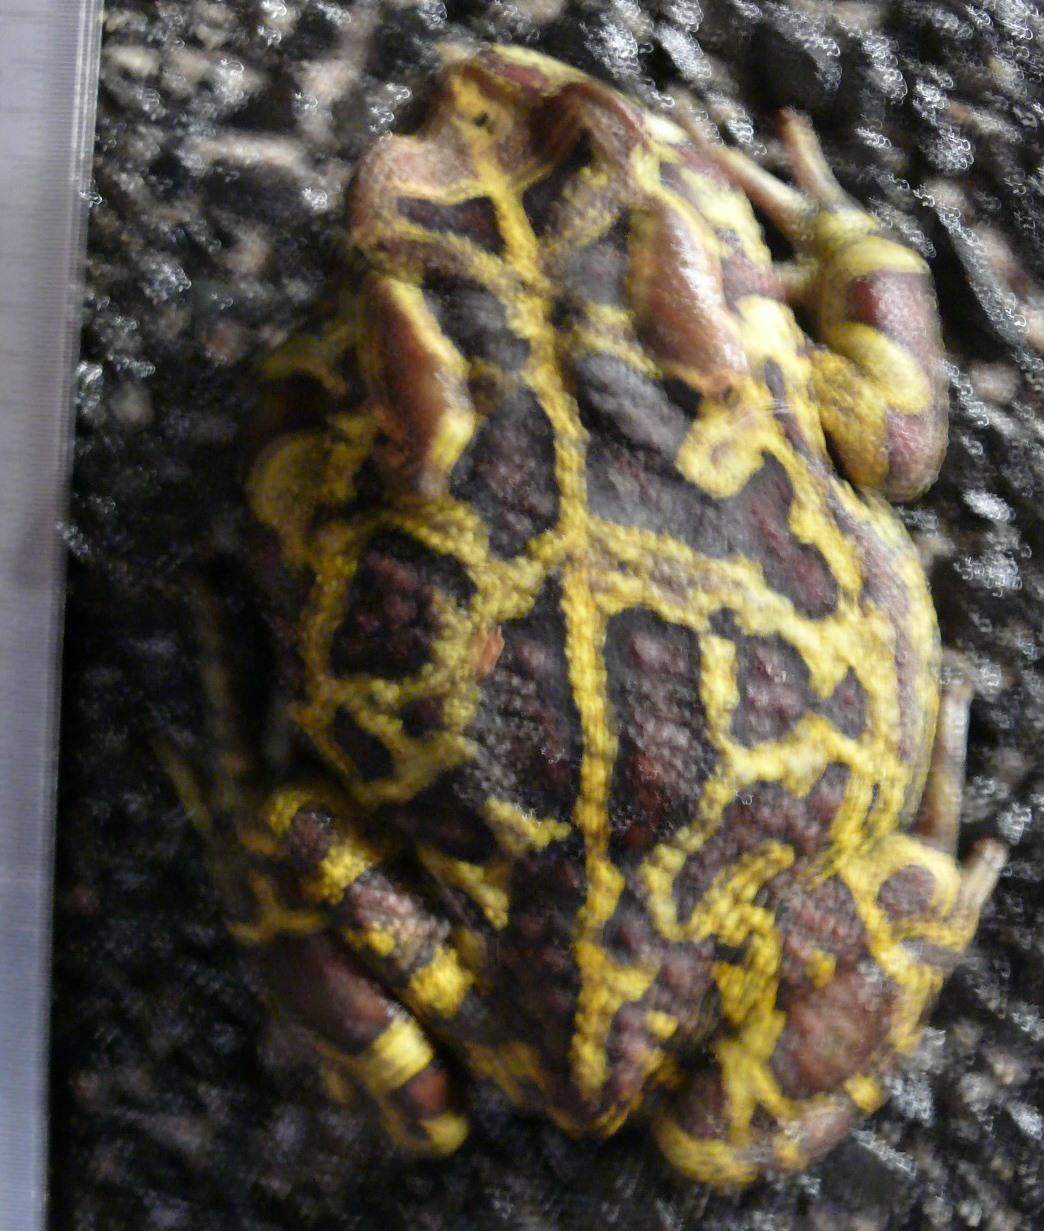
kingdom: Animalia
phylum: Chordata
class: Amphibia
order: Anura
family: Bufonidae
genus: Sclerophrys
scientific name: Sclerophrys pantherina
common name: Panther toad
